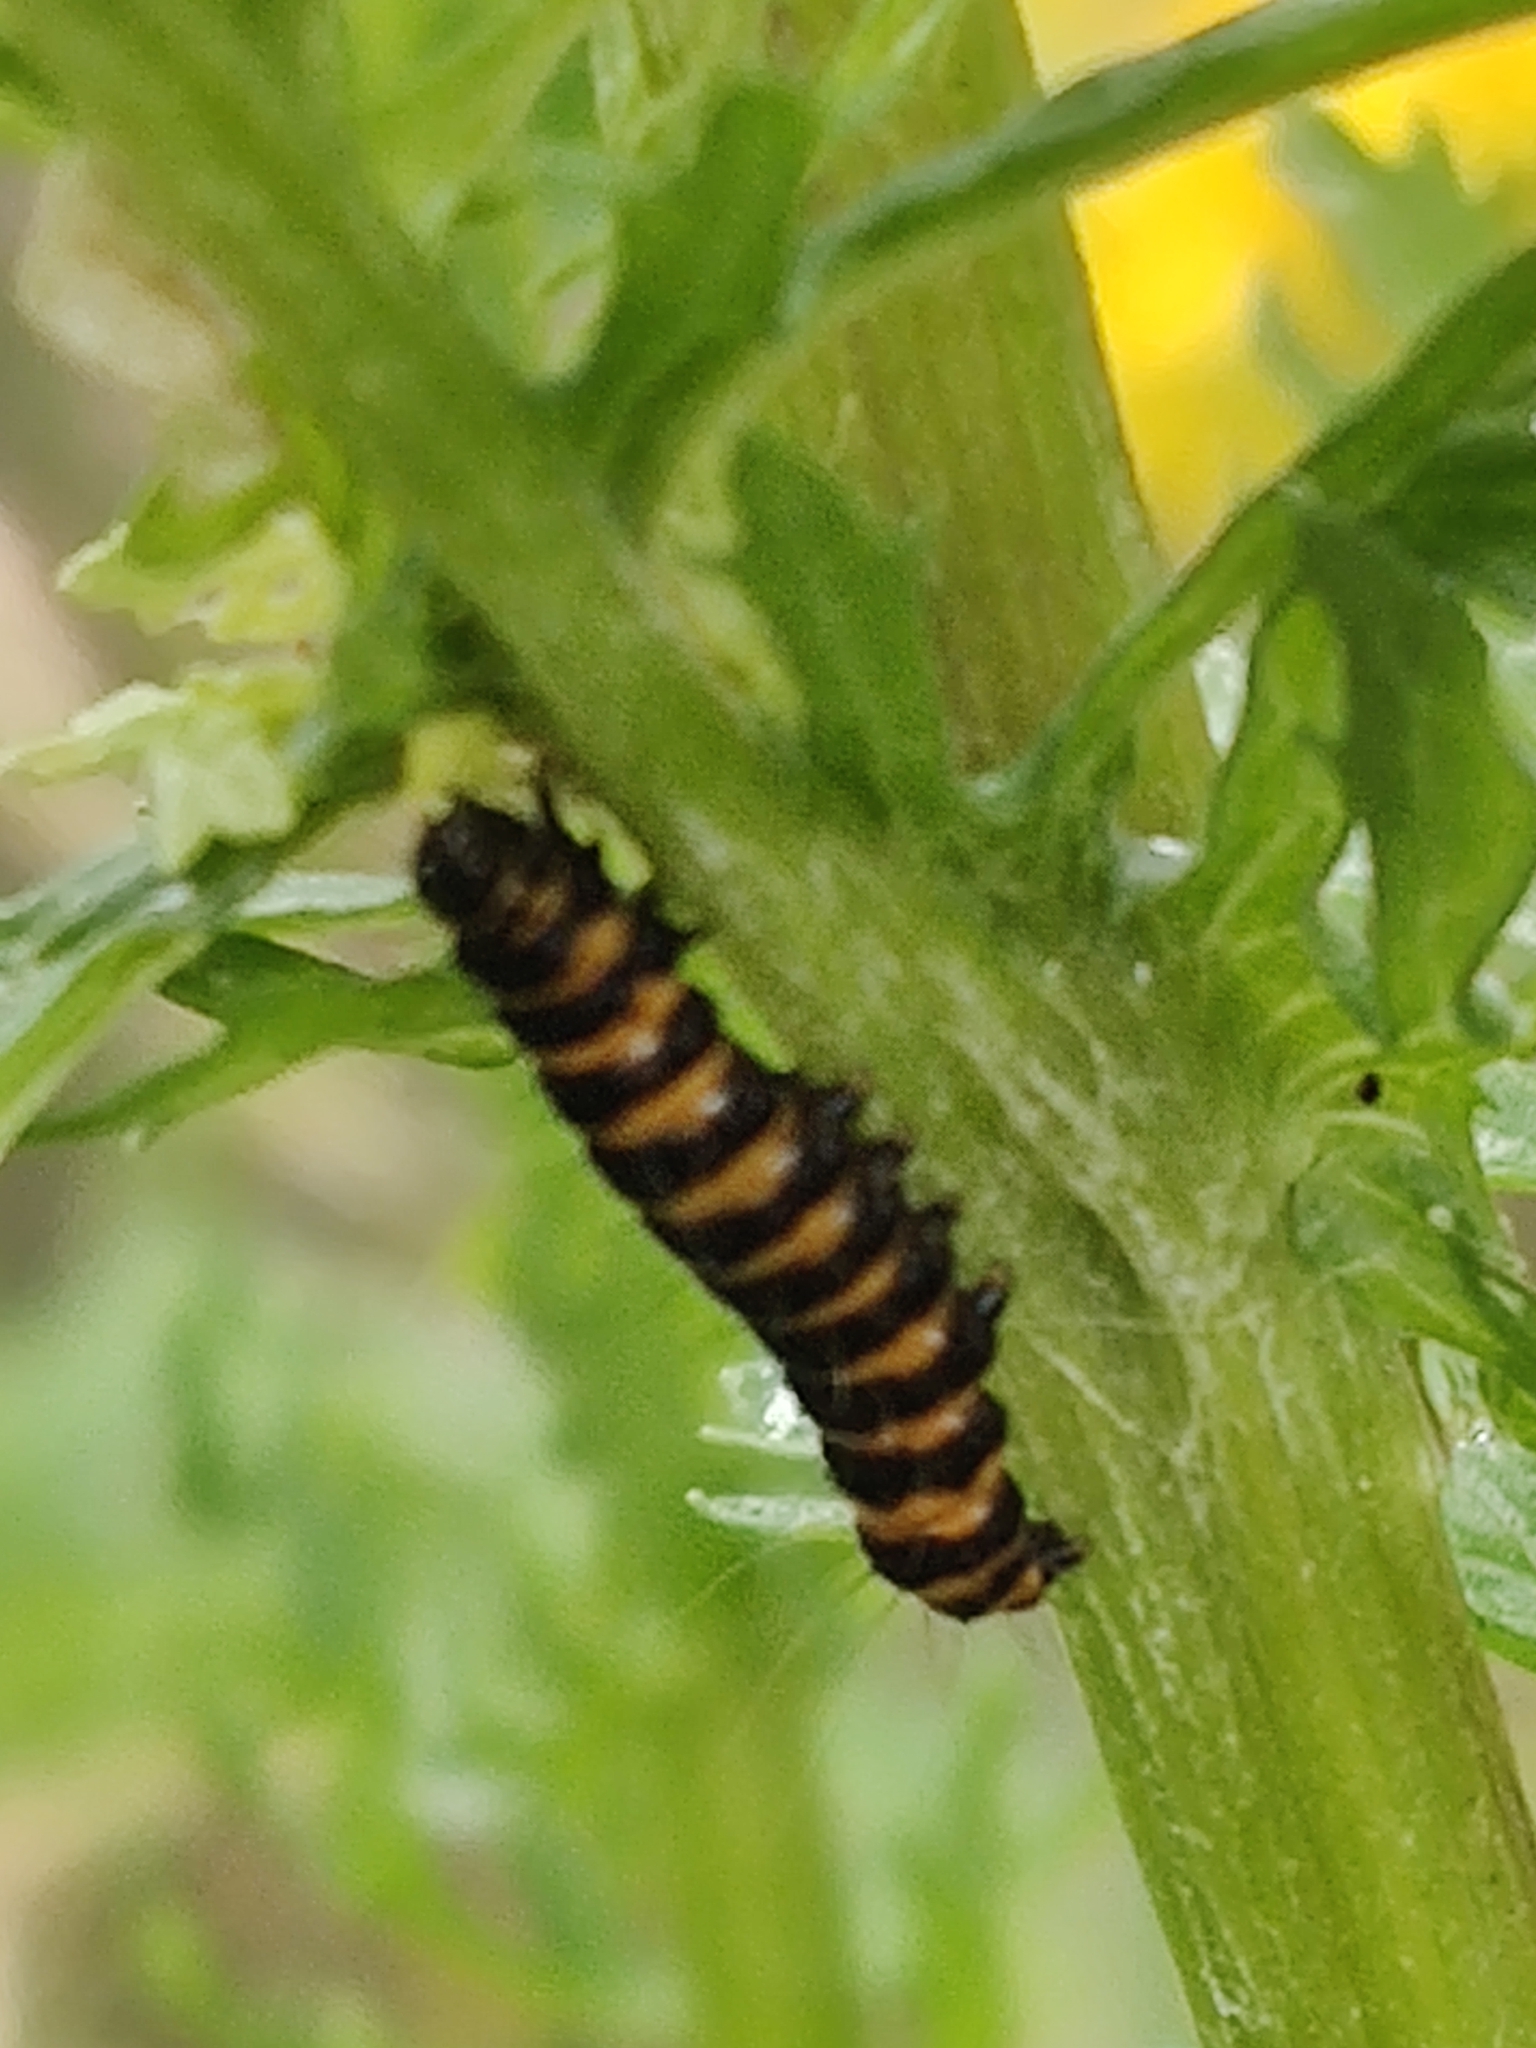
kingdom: Animalia
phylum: Arthropoda
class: Insecta
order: Lepidoptera
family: Erebidae
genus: Tyria
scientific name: Tyria jacobaeae
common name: Cinnabar
